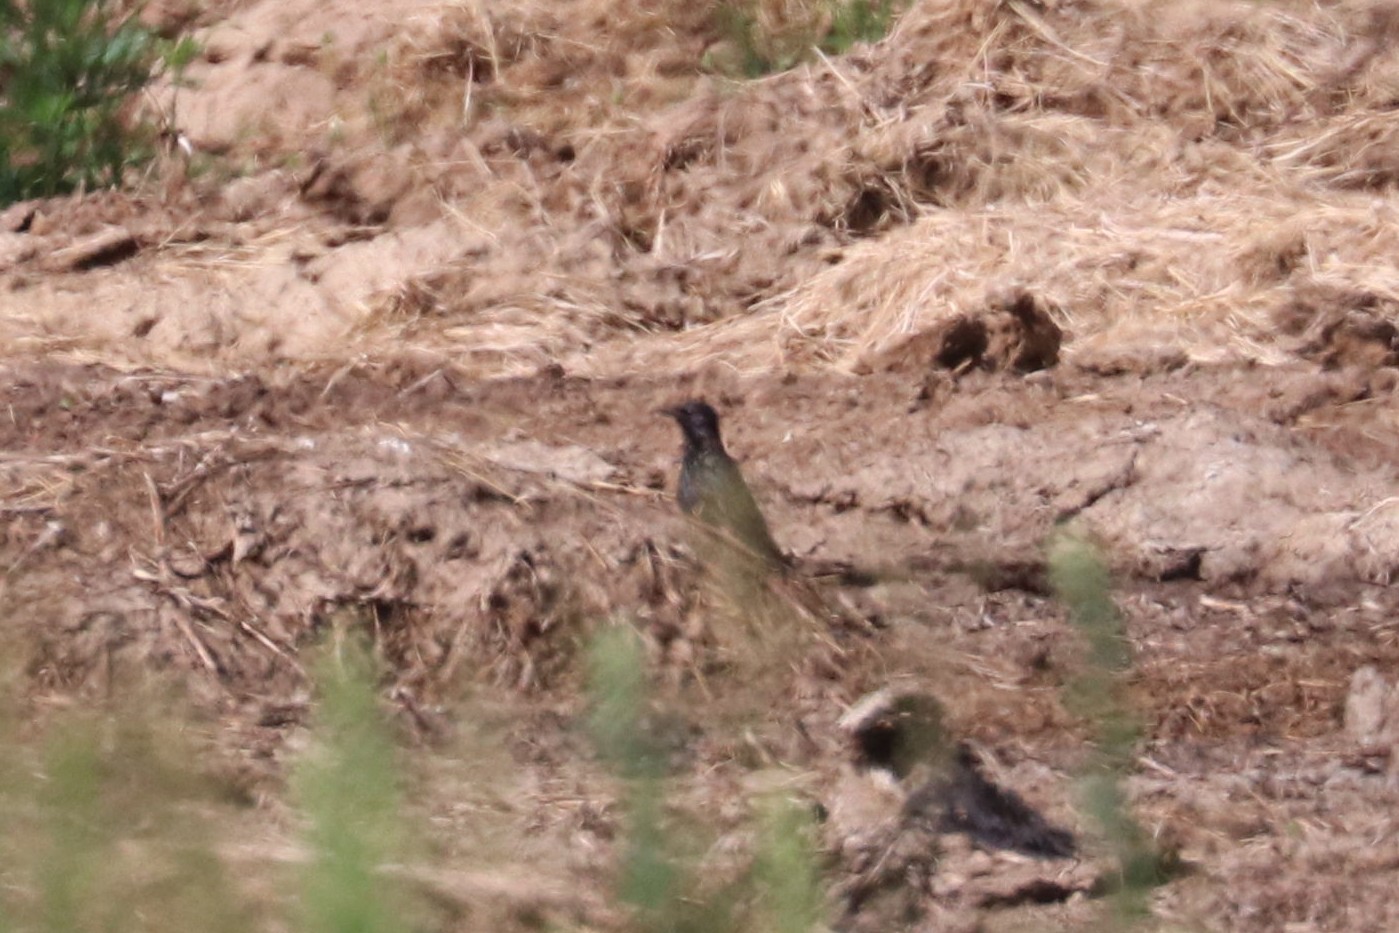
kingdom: Animalia
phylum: Chordata
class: Aves
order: Passeriformes
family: Sturnidae
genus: Sturnus
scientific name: Sturnus vulgaris
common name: Common starling
